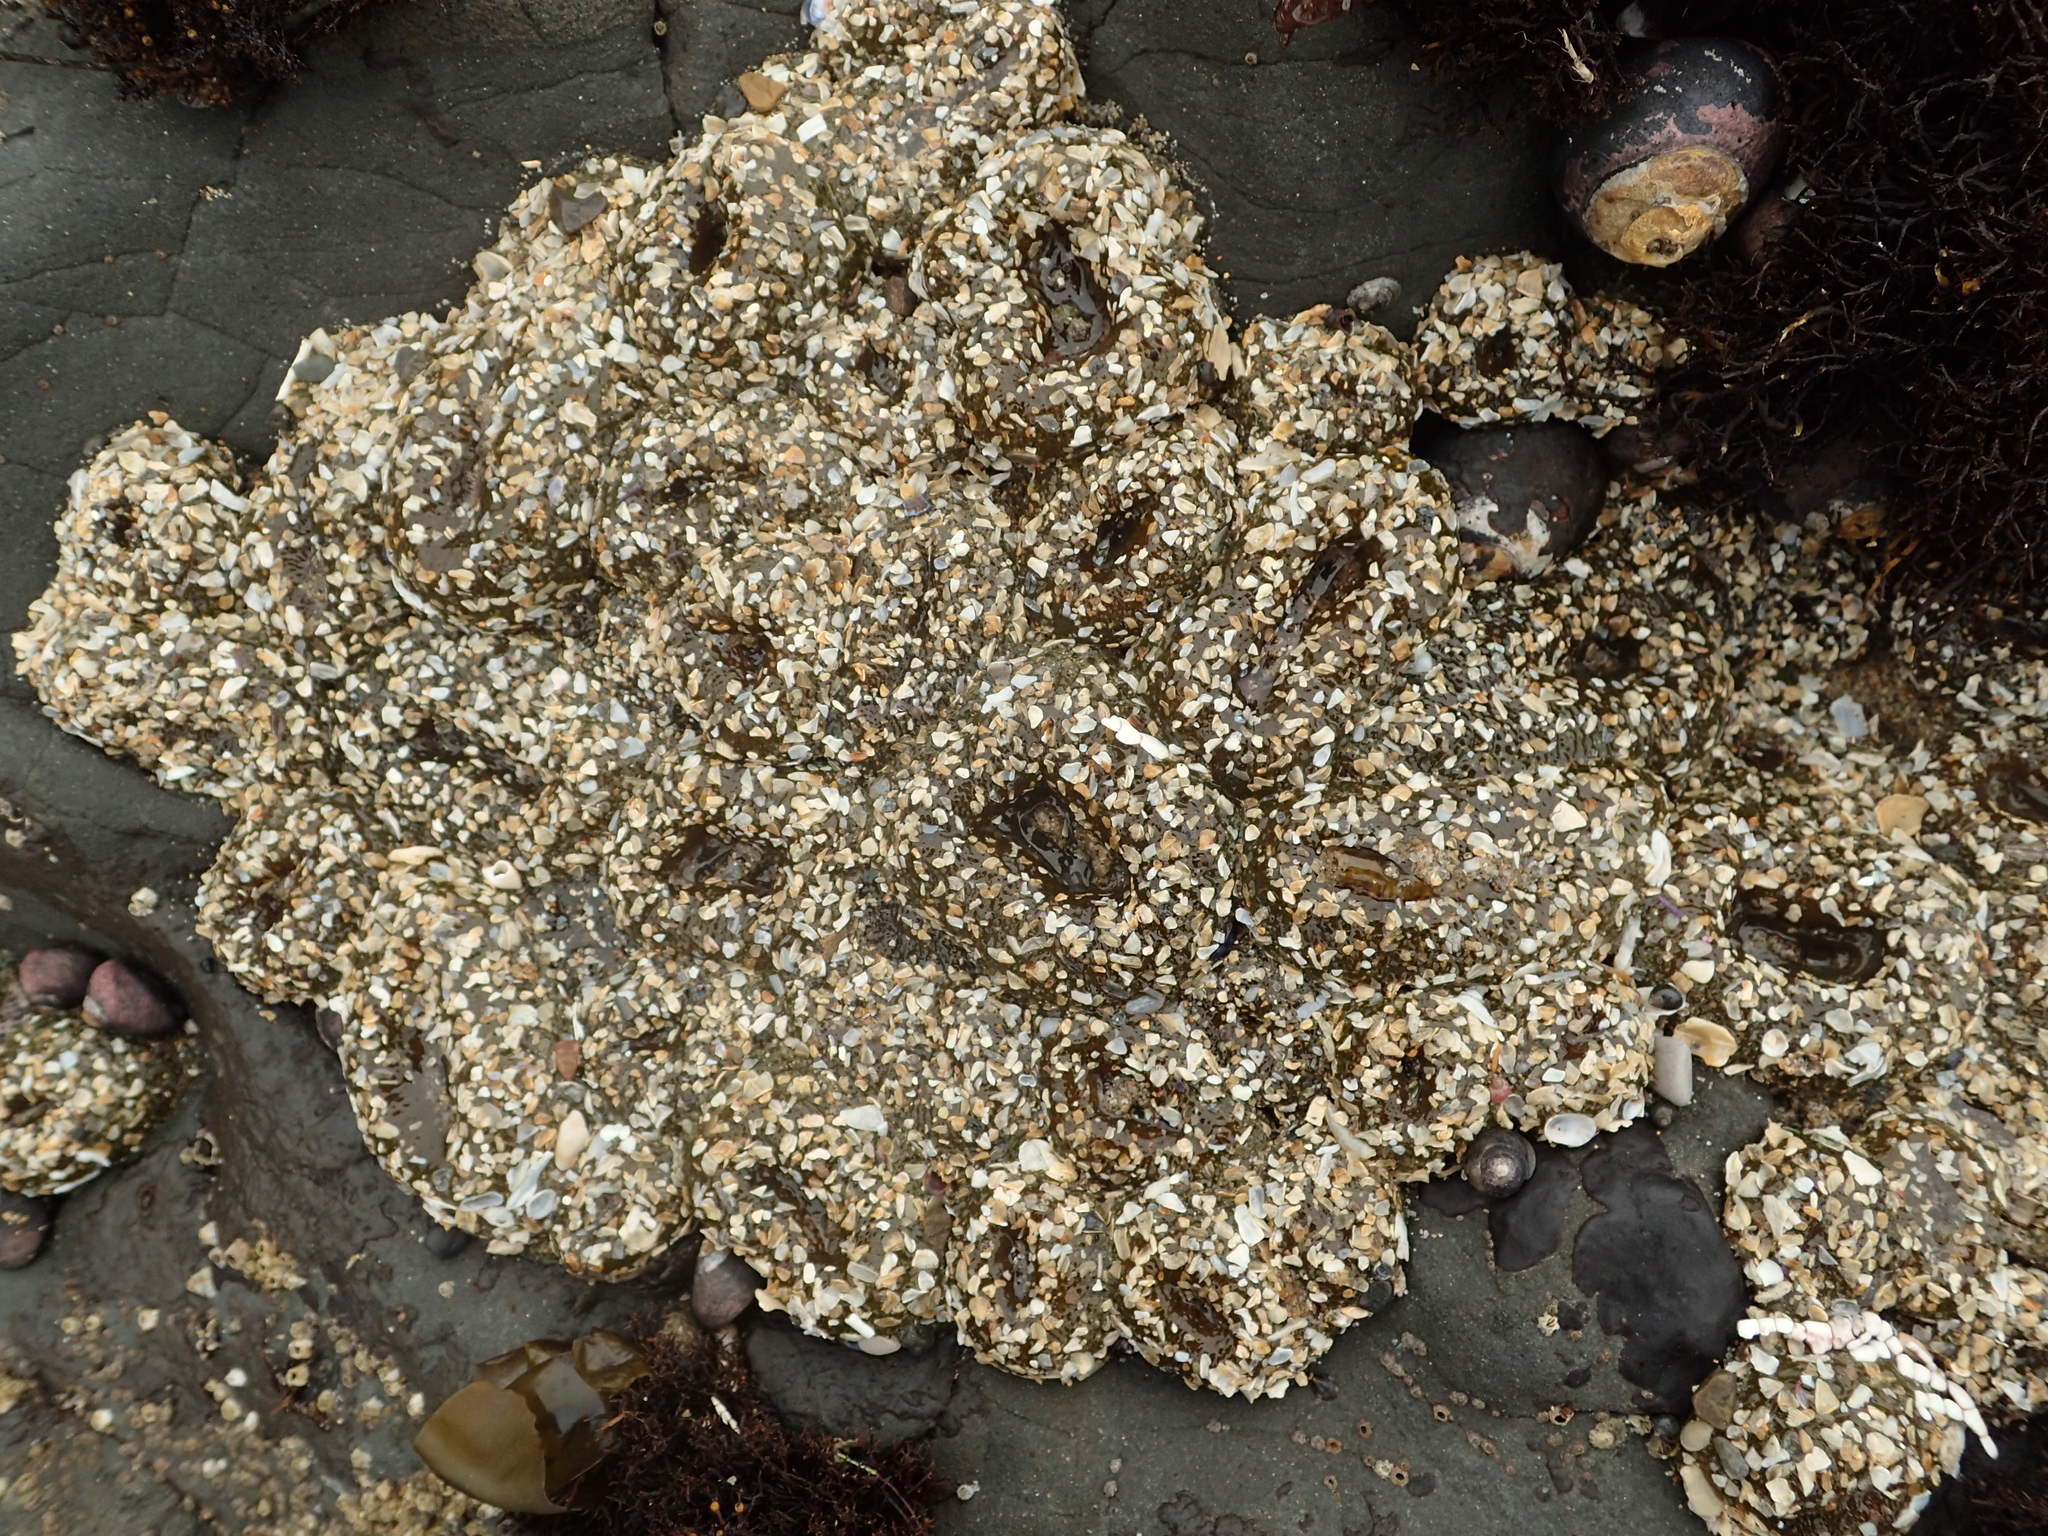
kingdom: Animalia
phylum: Cnidaria
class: Anthozoa
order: Actiniaria
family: Actiniidae
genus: Anthopleura
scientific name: Anthopleura elegantissima
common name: Clonal anemone
